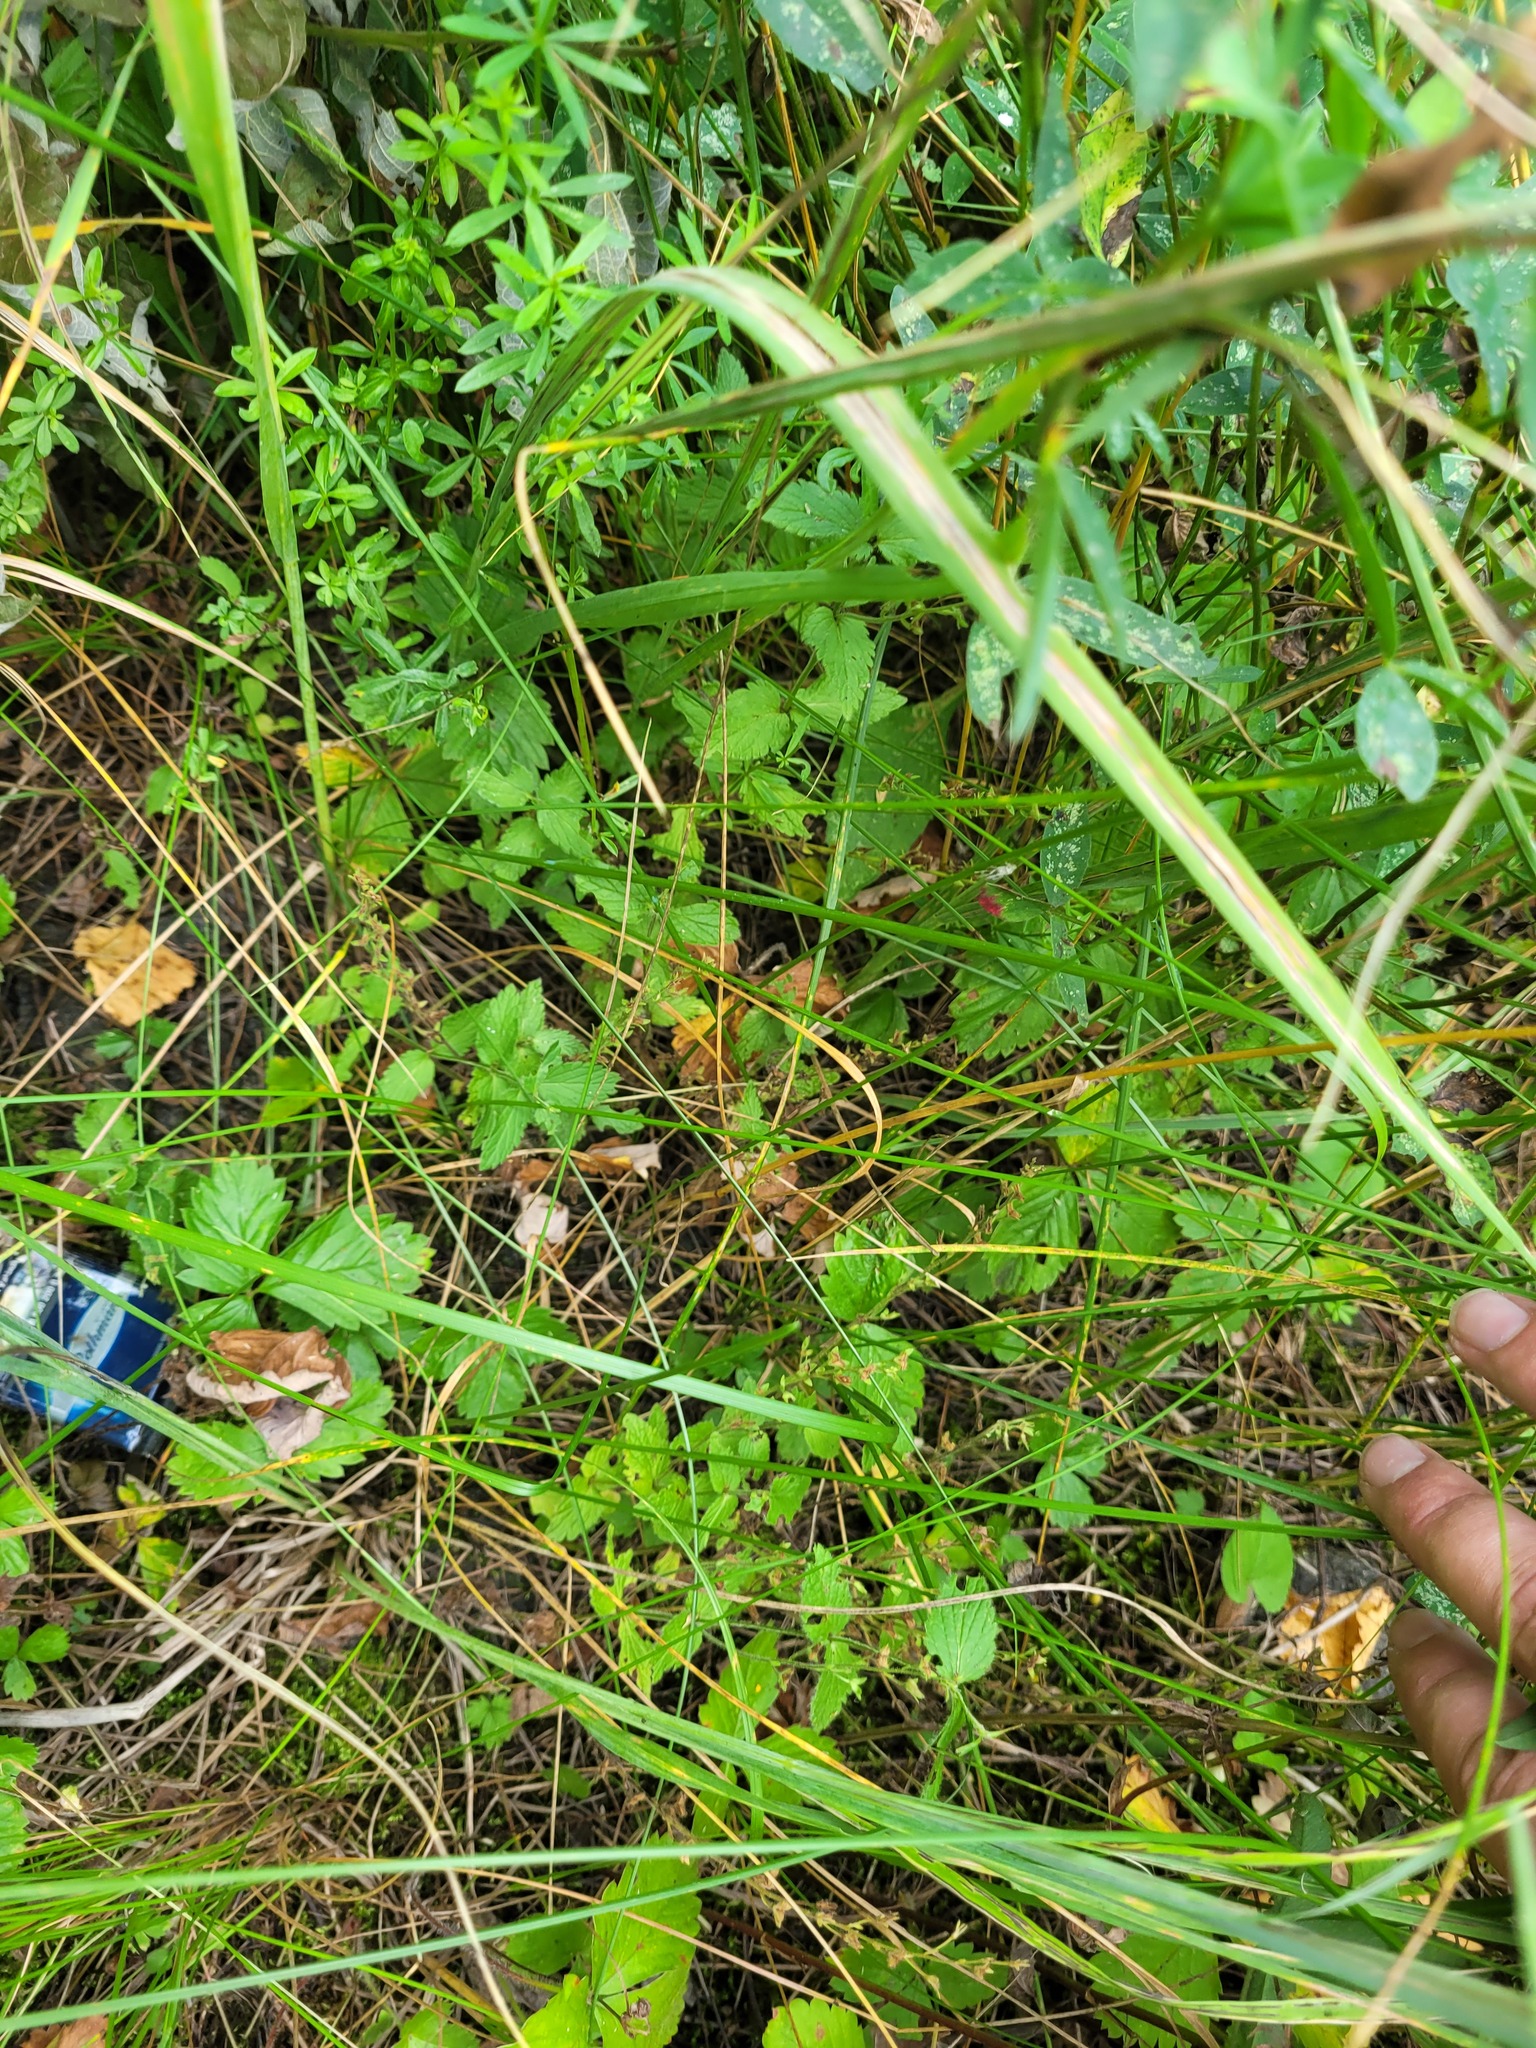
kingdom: Plantae
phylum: Tracheophyta
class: Liliopsida
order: Poales
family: Poaceae
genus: Poa
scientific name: Poa angustifolia
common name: Narrow-leaved meadow-grass
